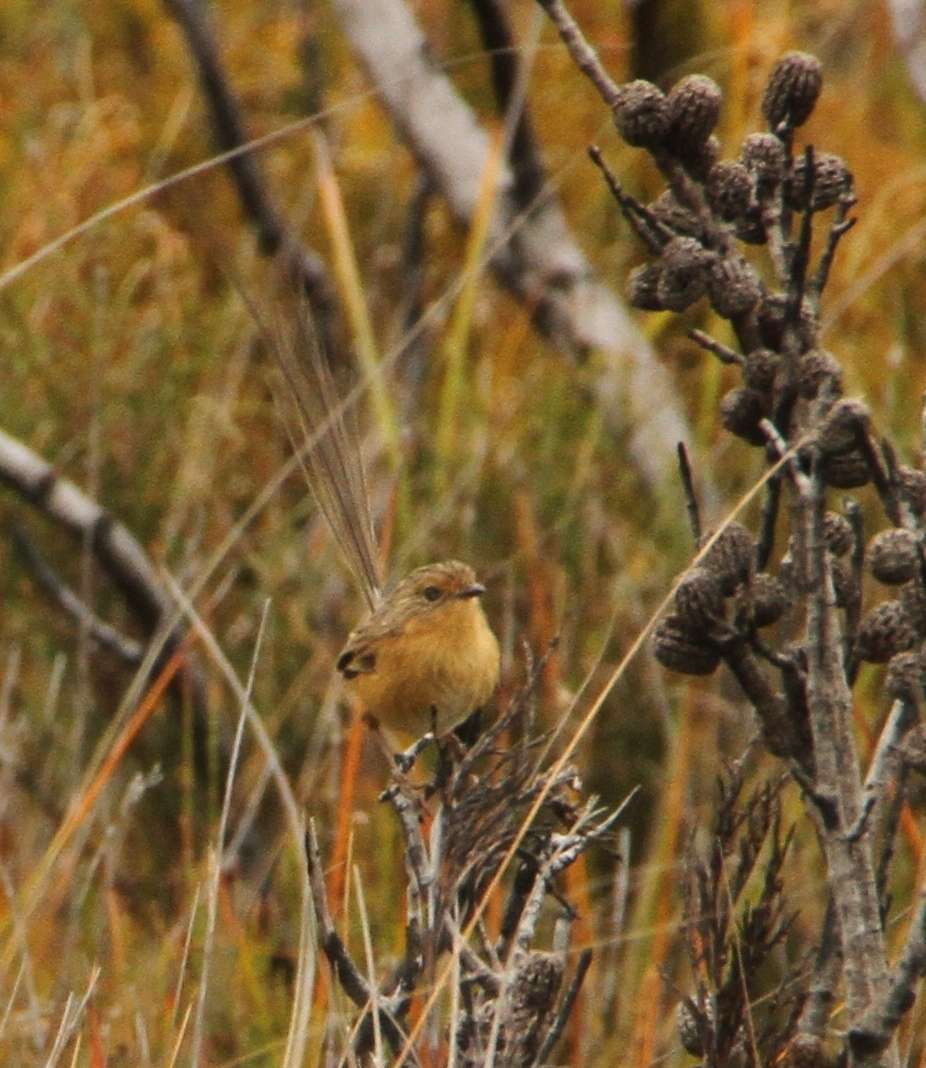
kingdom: Animalia
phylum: Chordata
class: Aves
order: Passeriformes
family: Maluridae
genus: Stipiturus
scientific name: Stipiturus malachurus
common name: Southern emu-wren
